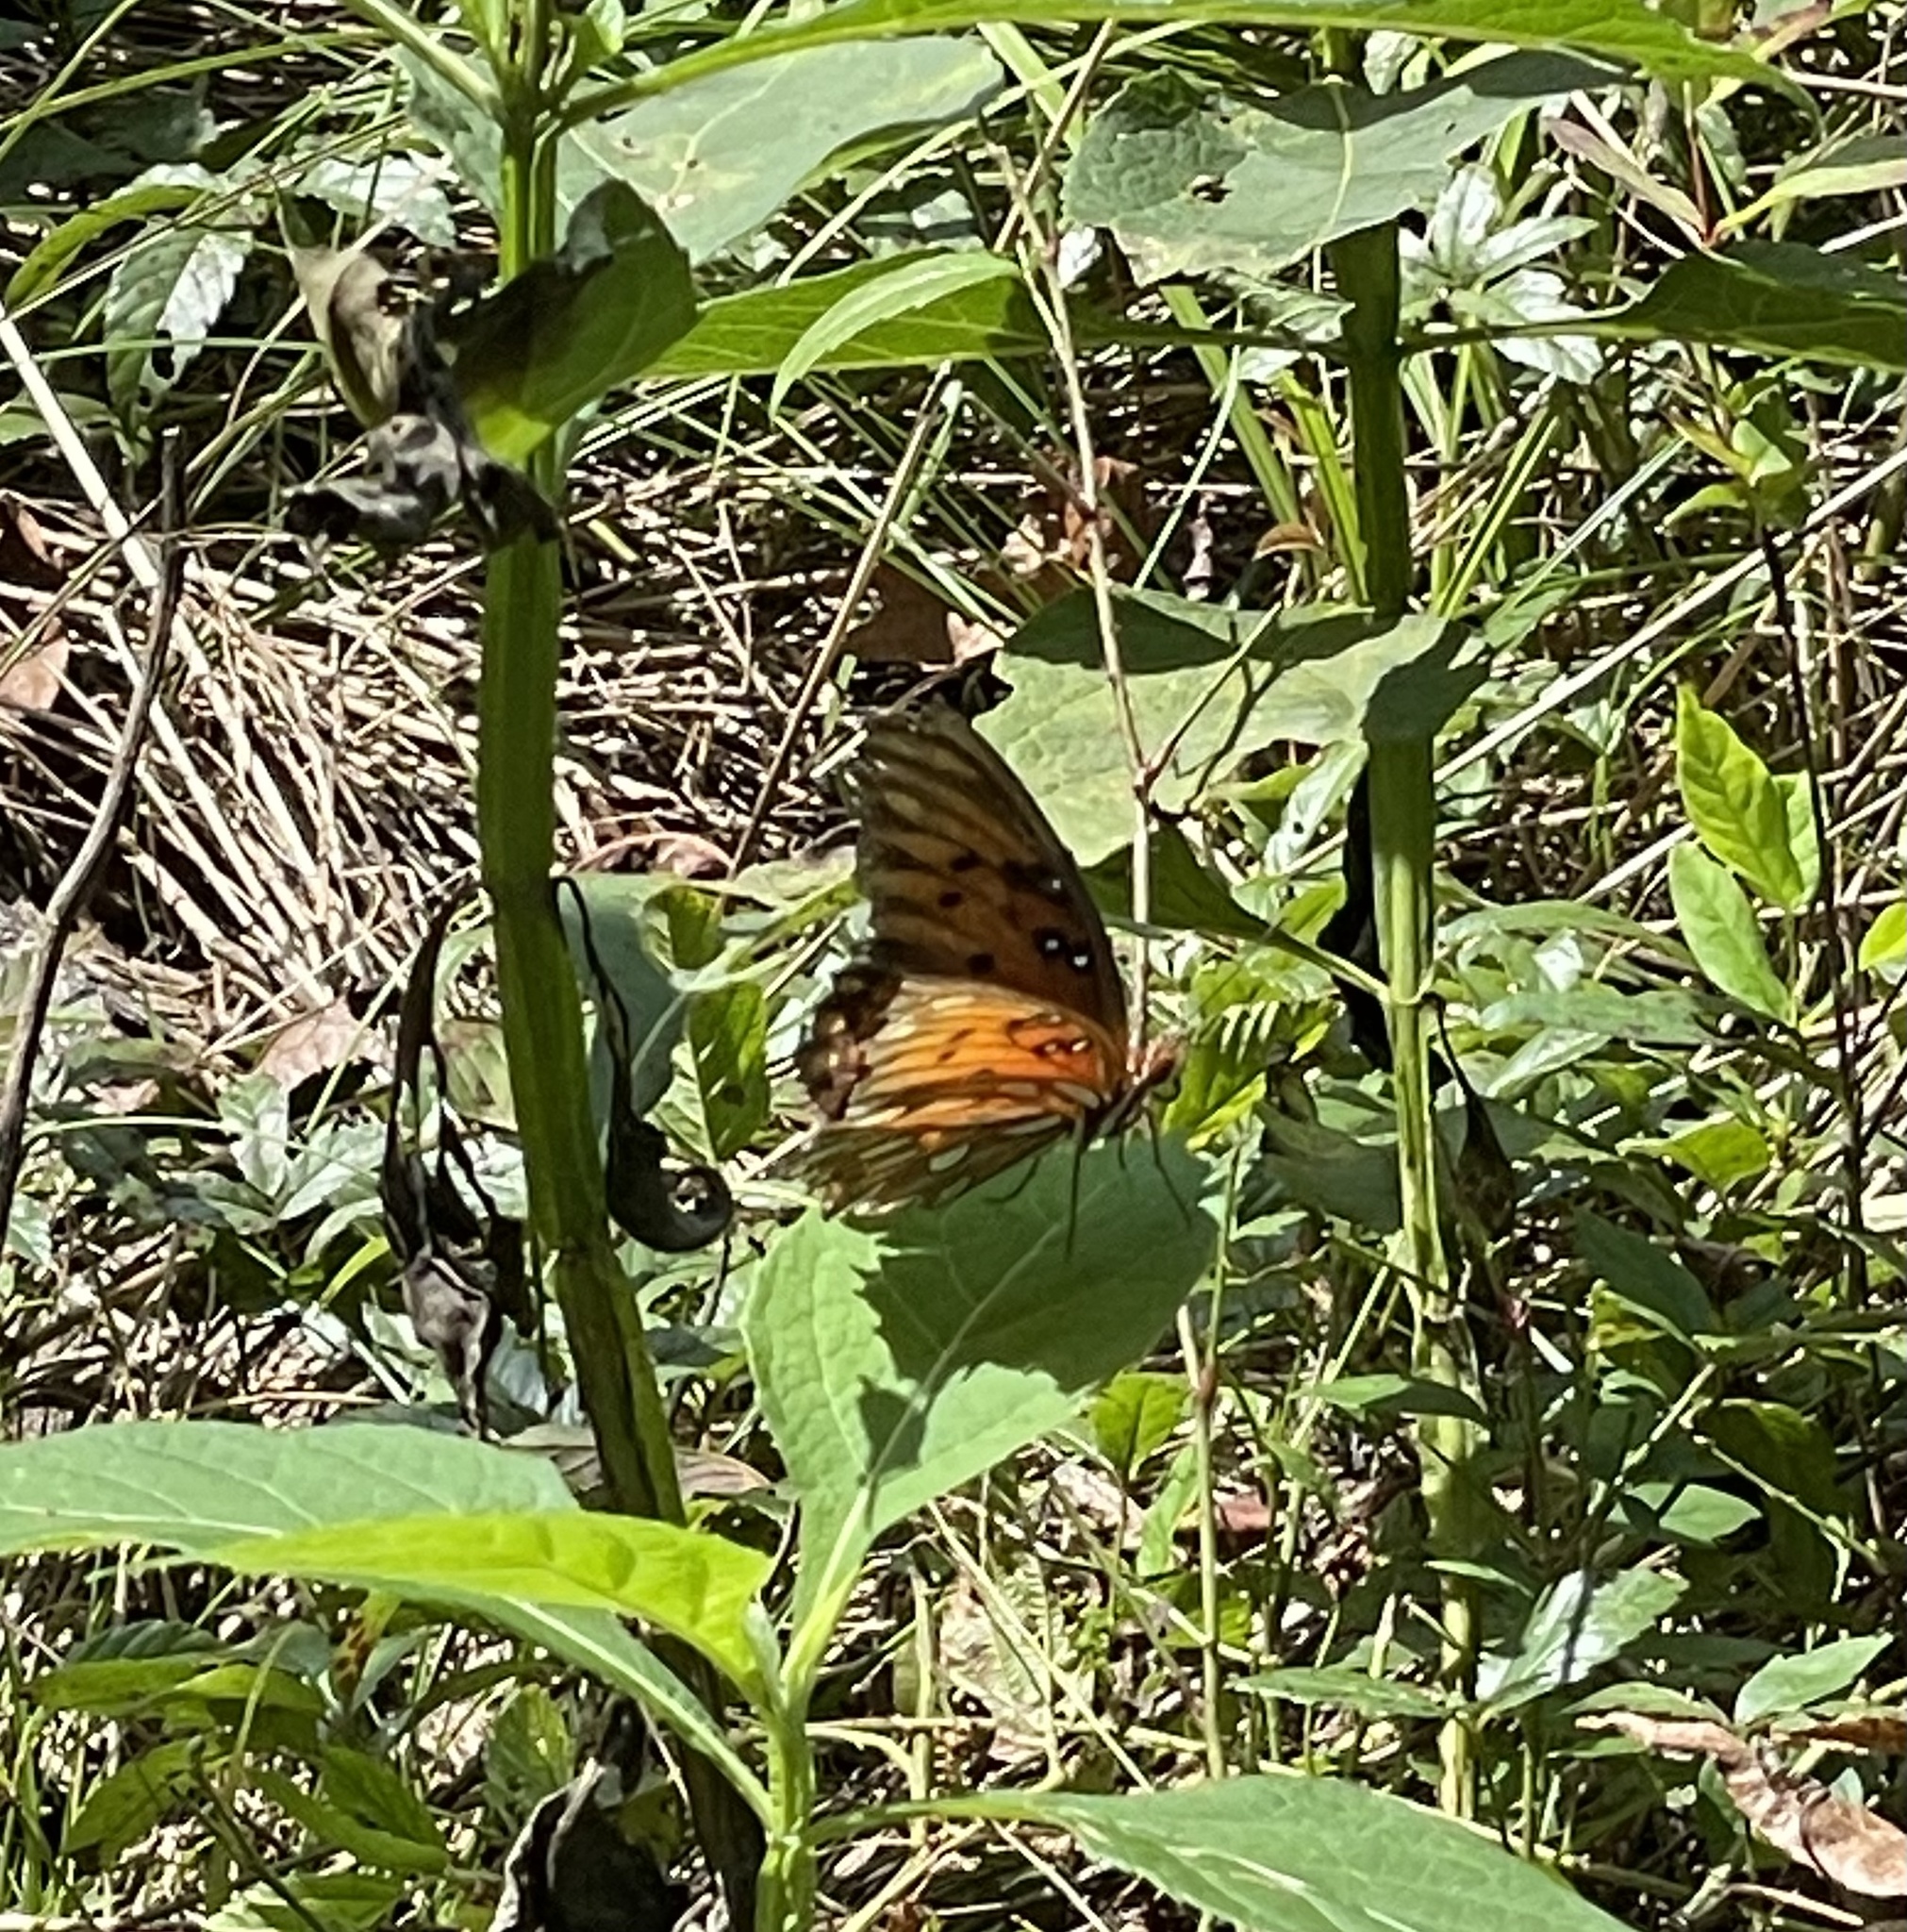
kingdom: Animalia
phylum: Arthropoda
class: Insecta
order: Lepidoptera
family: Nymphalidae
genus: Dione
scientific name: Dione vanillae
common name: Gulf fritillary
